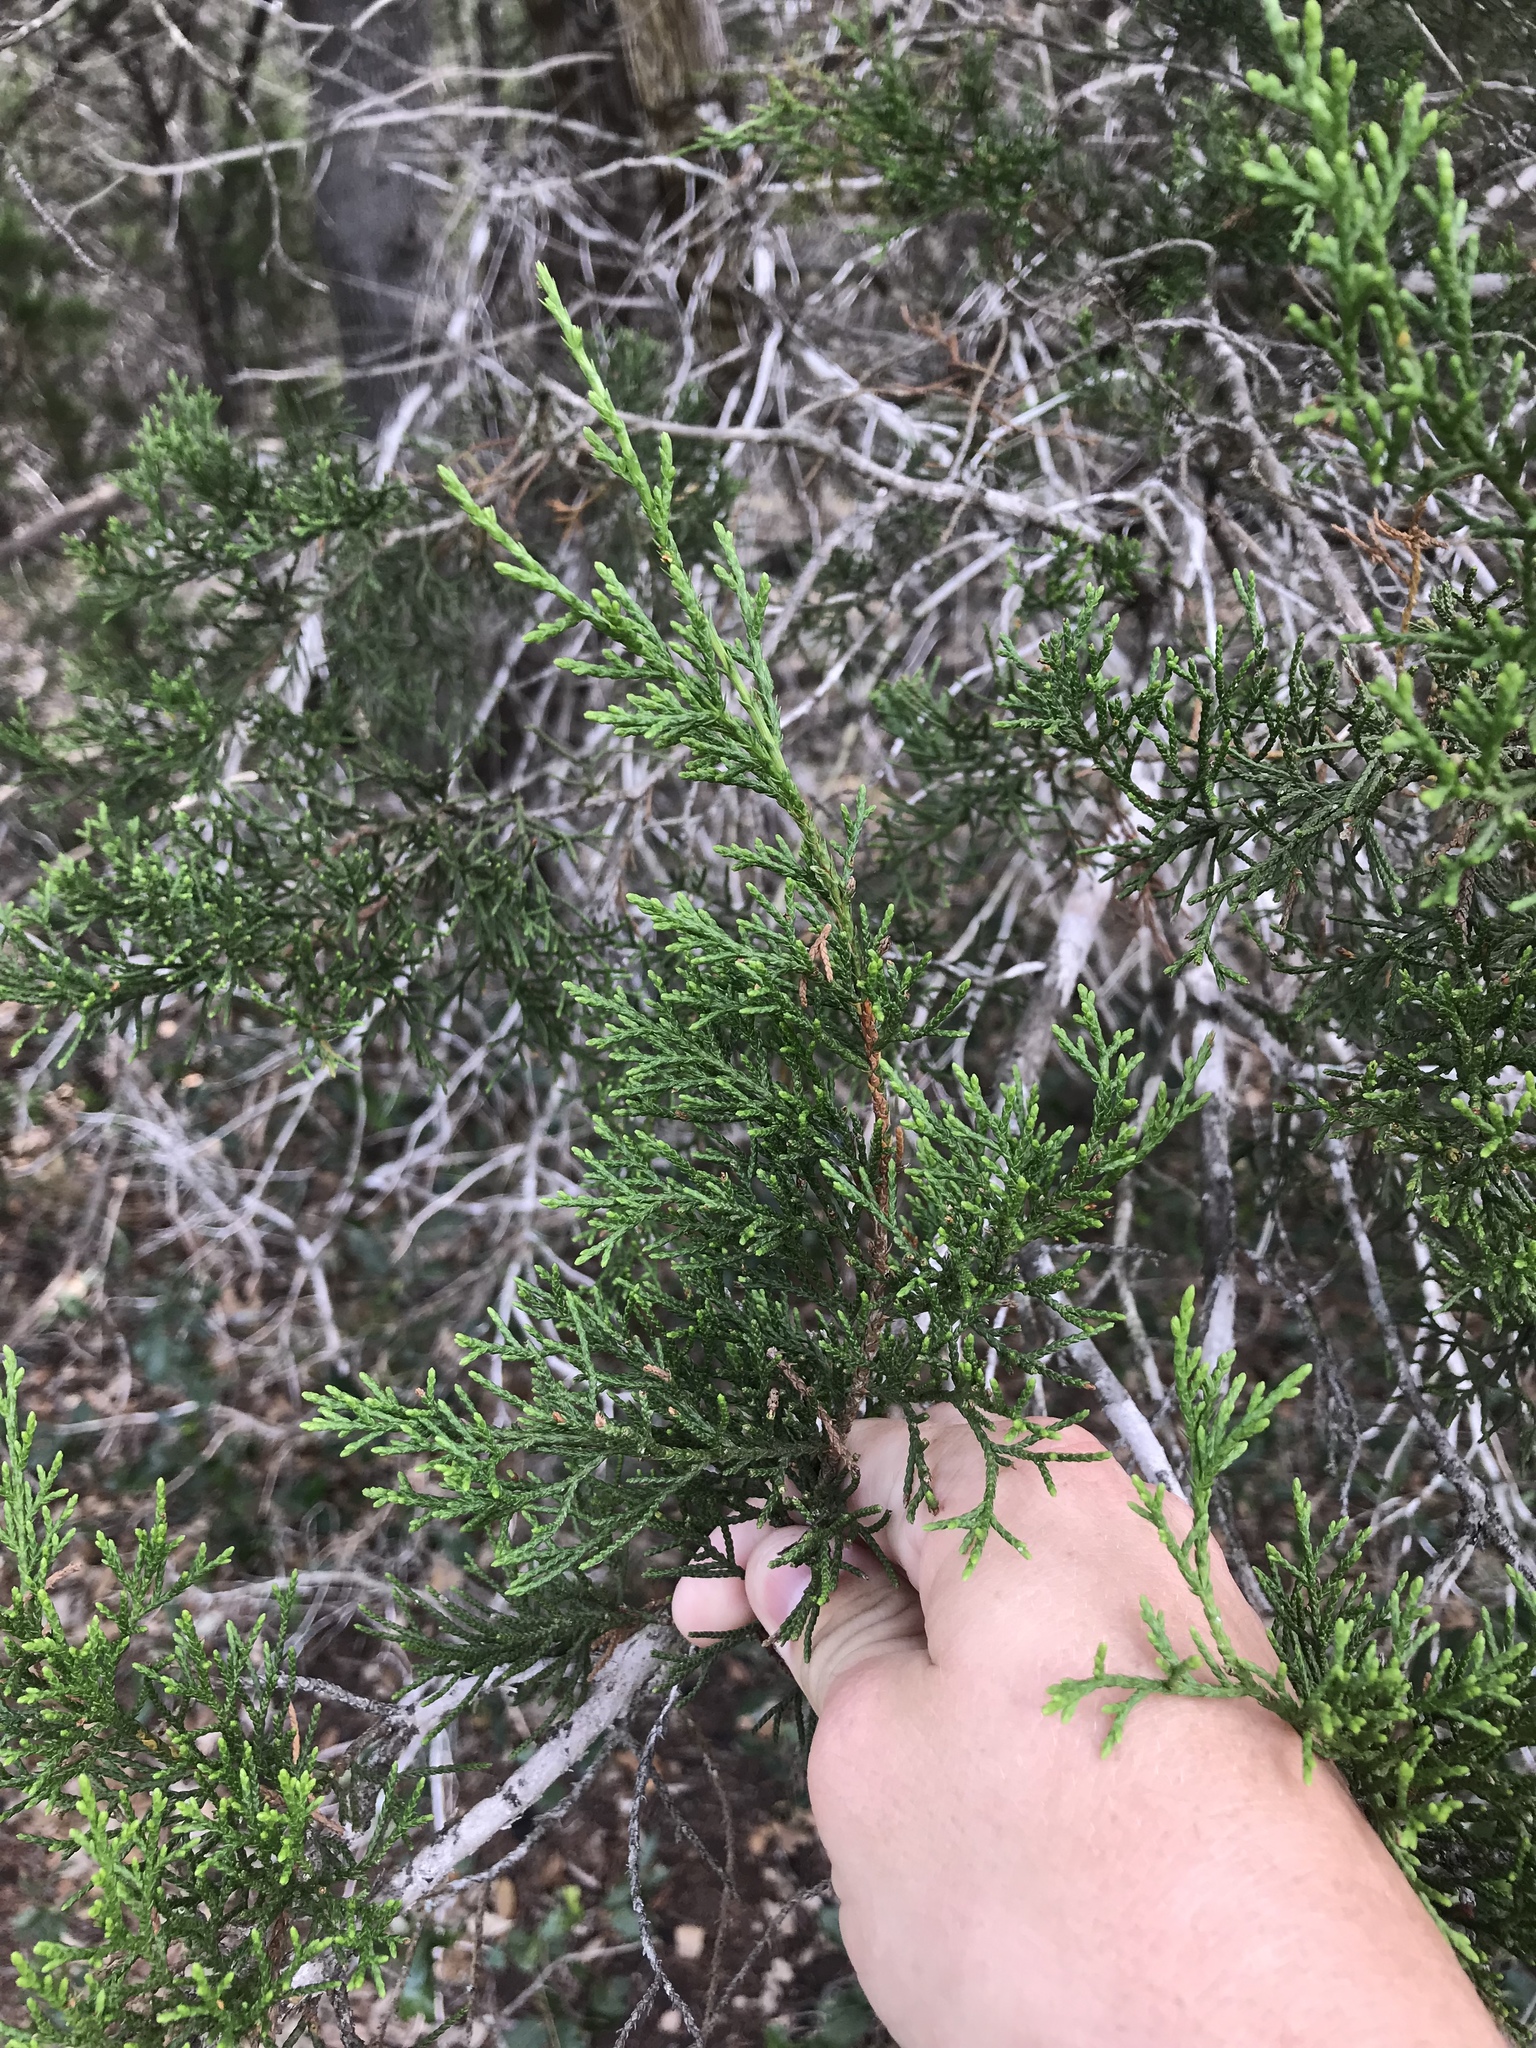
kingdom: Plantae
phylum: Tracheophyta
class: Pinopsida
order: Pinales
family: Cupressaceae
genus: Juniperus
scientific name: Juniperus ashei
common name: Mexican juniper
